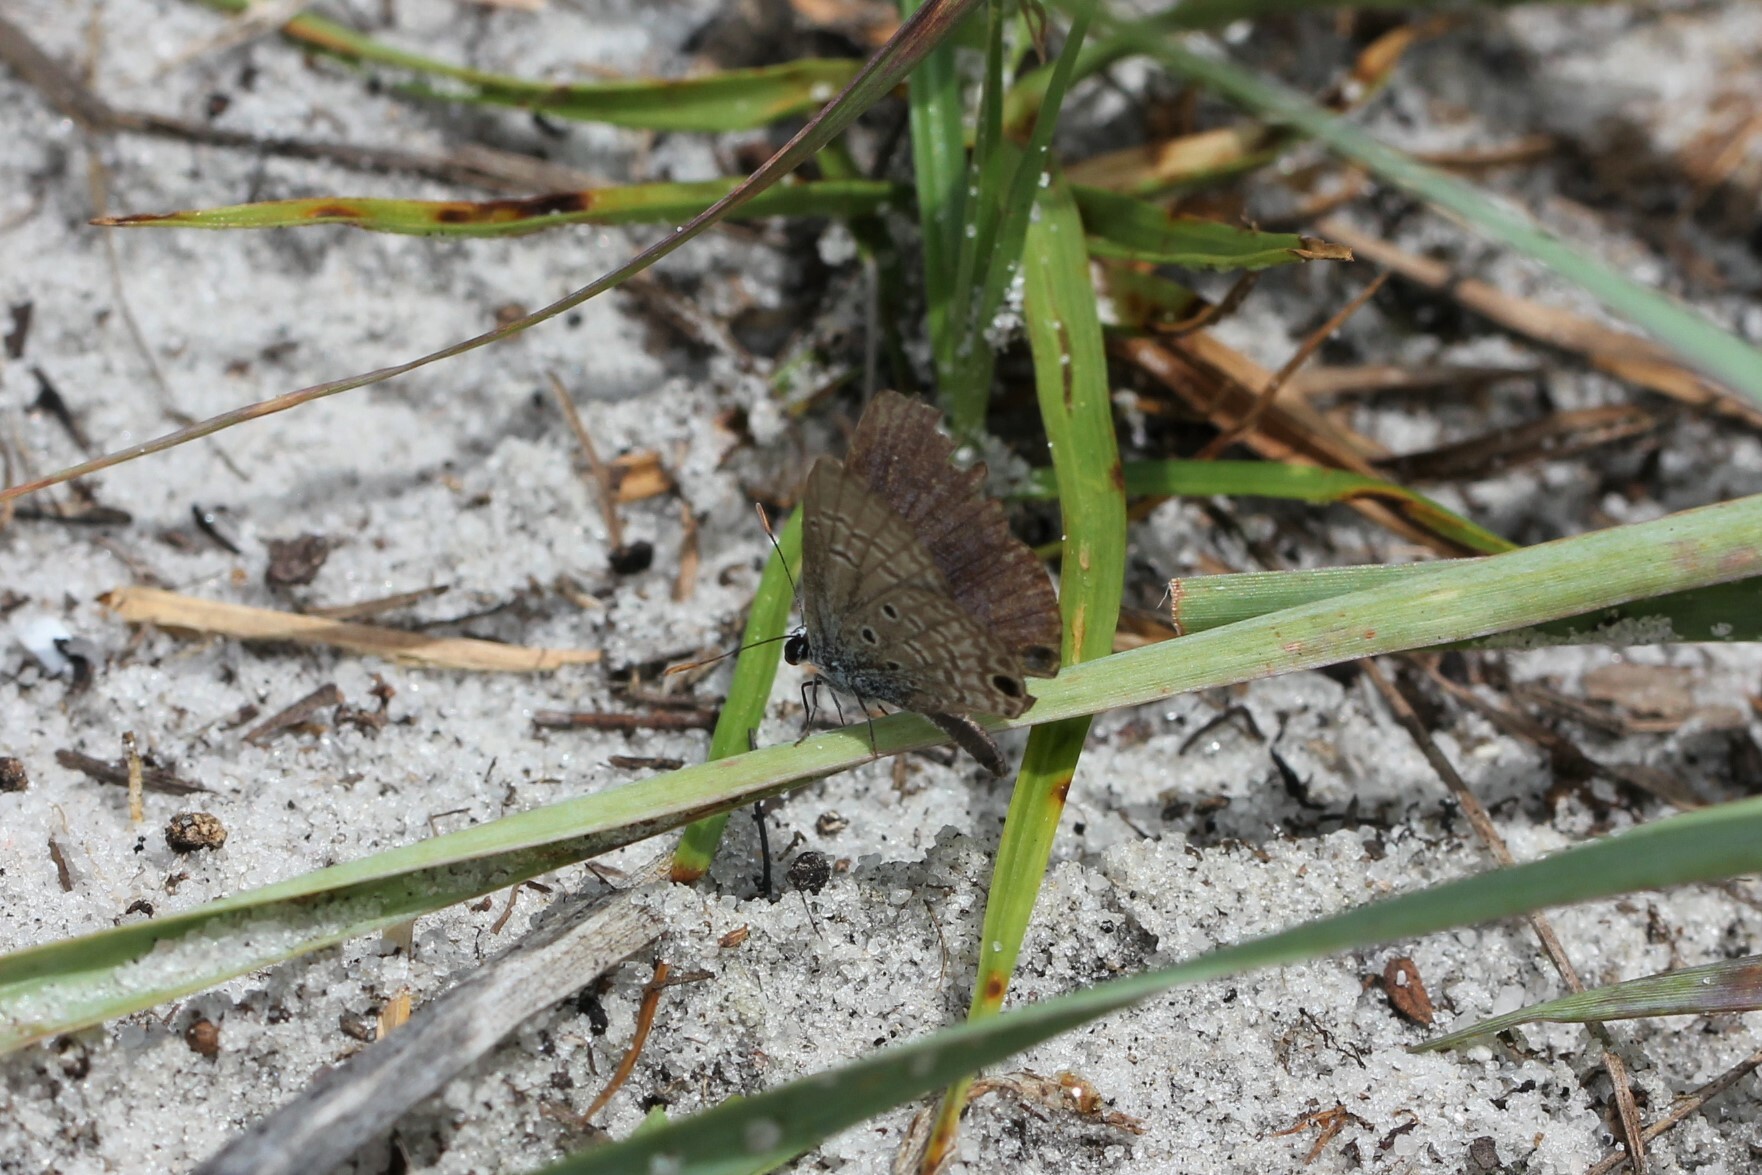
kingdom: Animalia
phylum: Arthropoda
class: Insecta
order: Lepidoptera
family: Lycaenidae
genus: Hemiargus
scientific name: Hemiargus ceraunus
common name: Ceraunus blue
